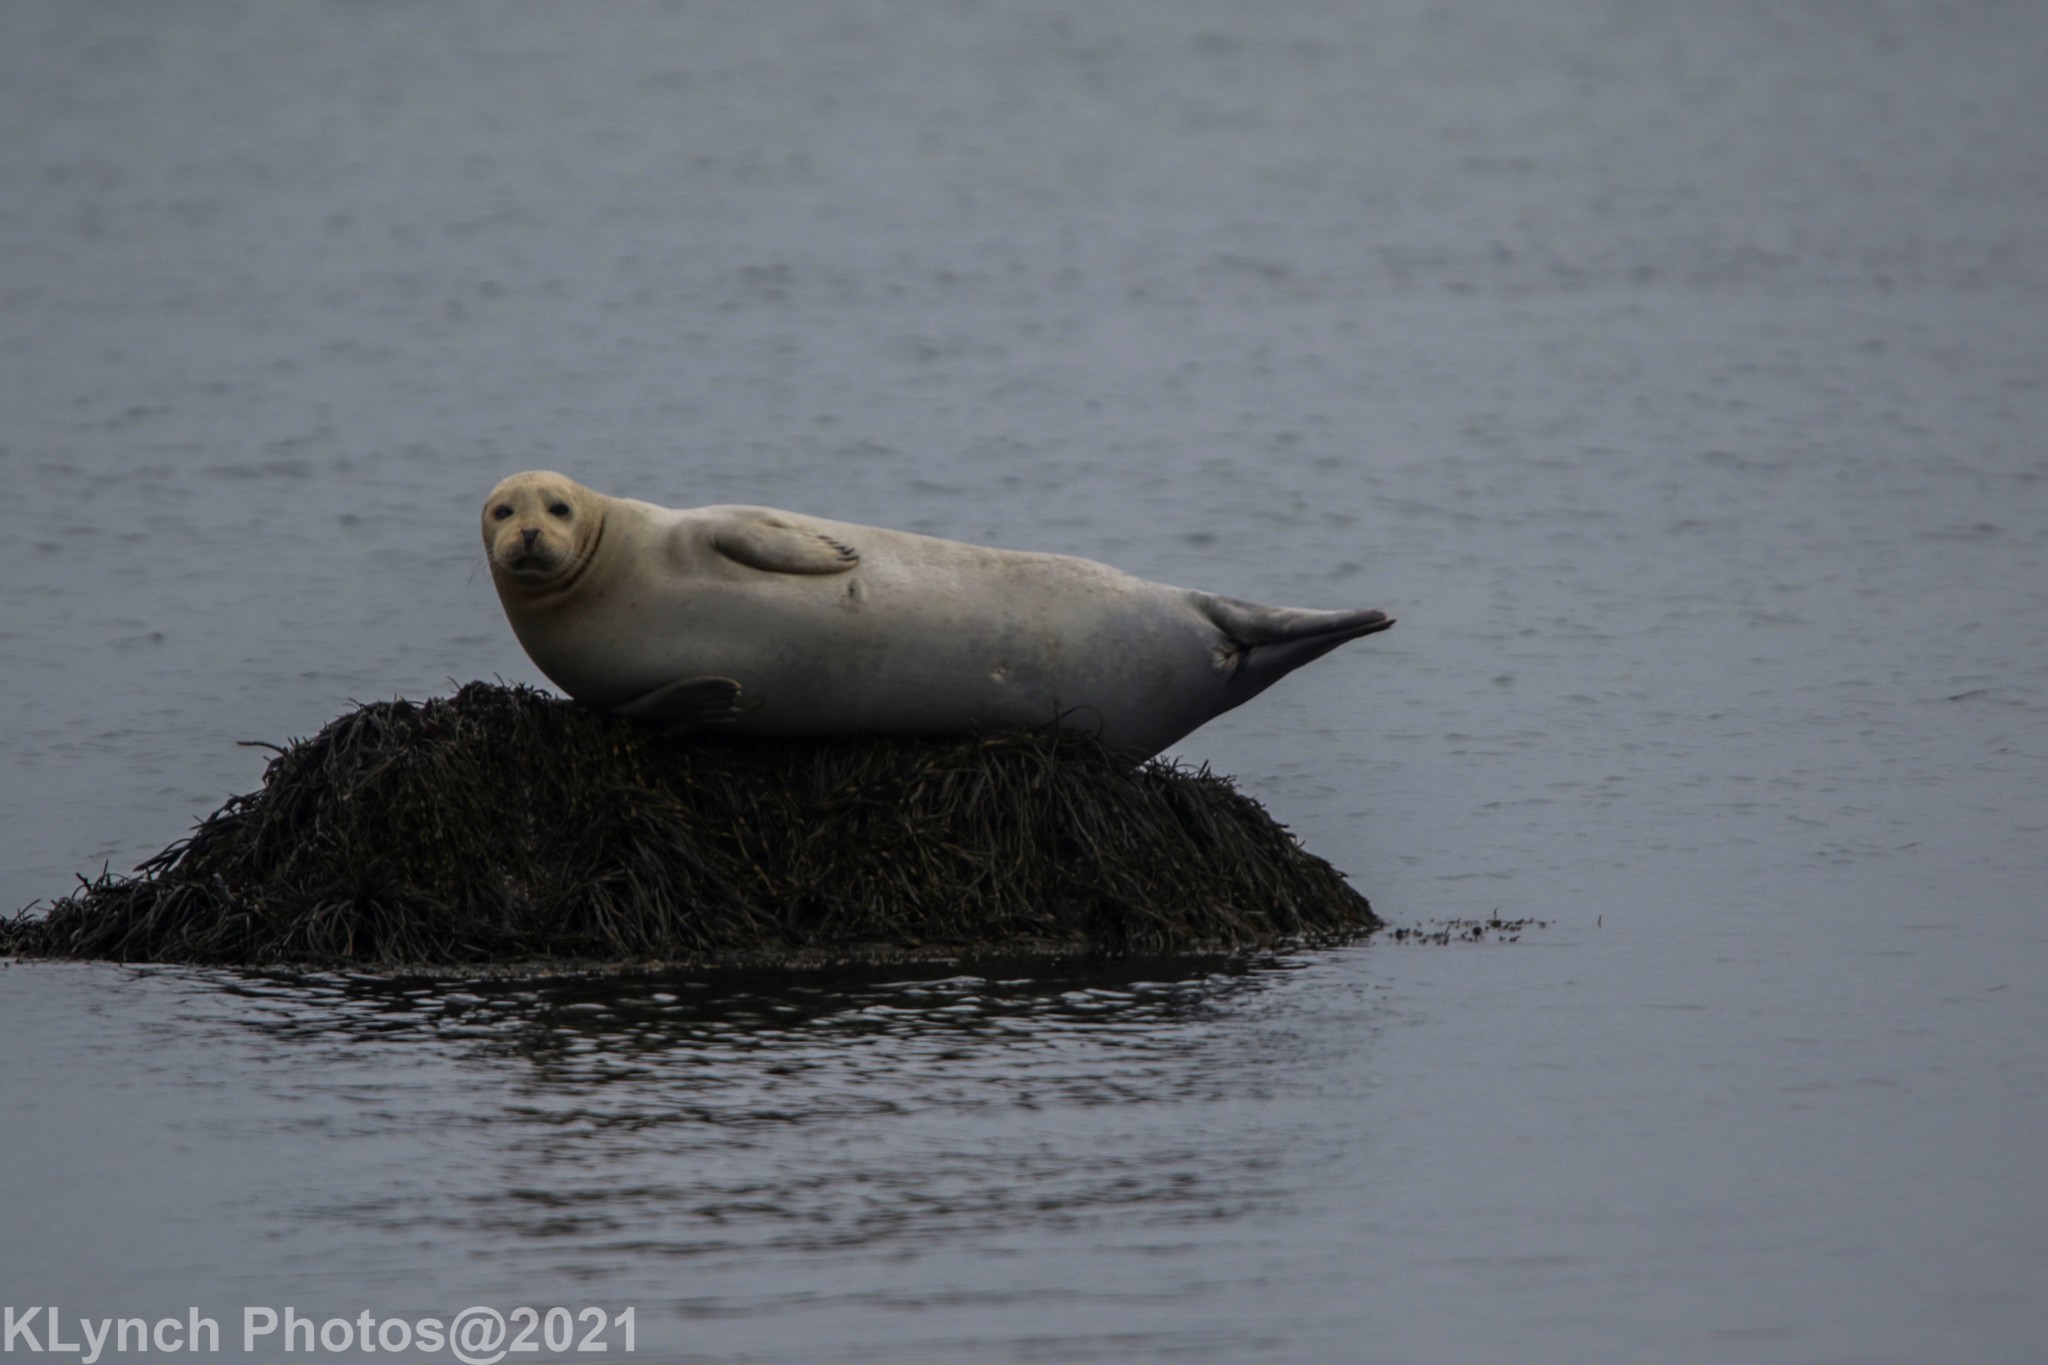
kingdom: Animalia
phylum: Chordata
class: Mammalia
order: Carnivora
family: Phocidae
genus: Phoca
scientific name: Phoca vitulina
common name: Harbor seal
